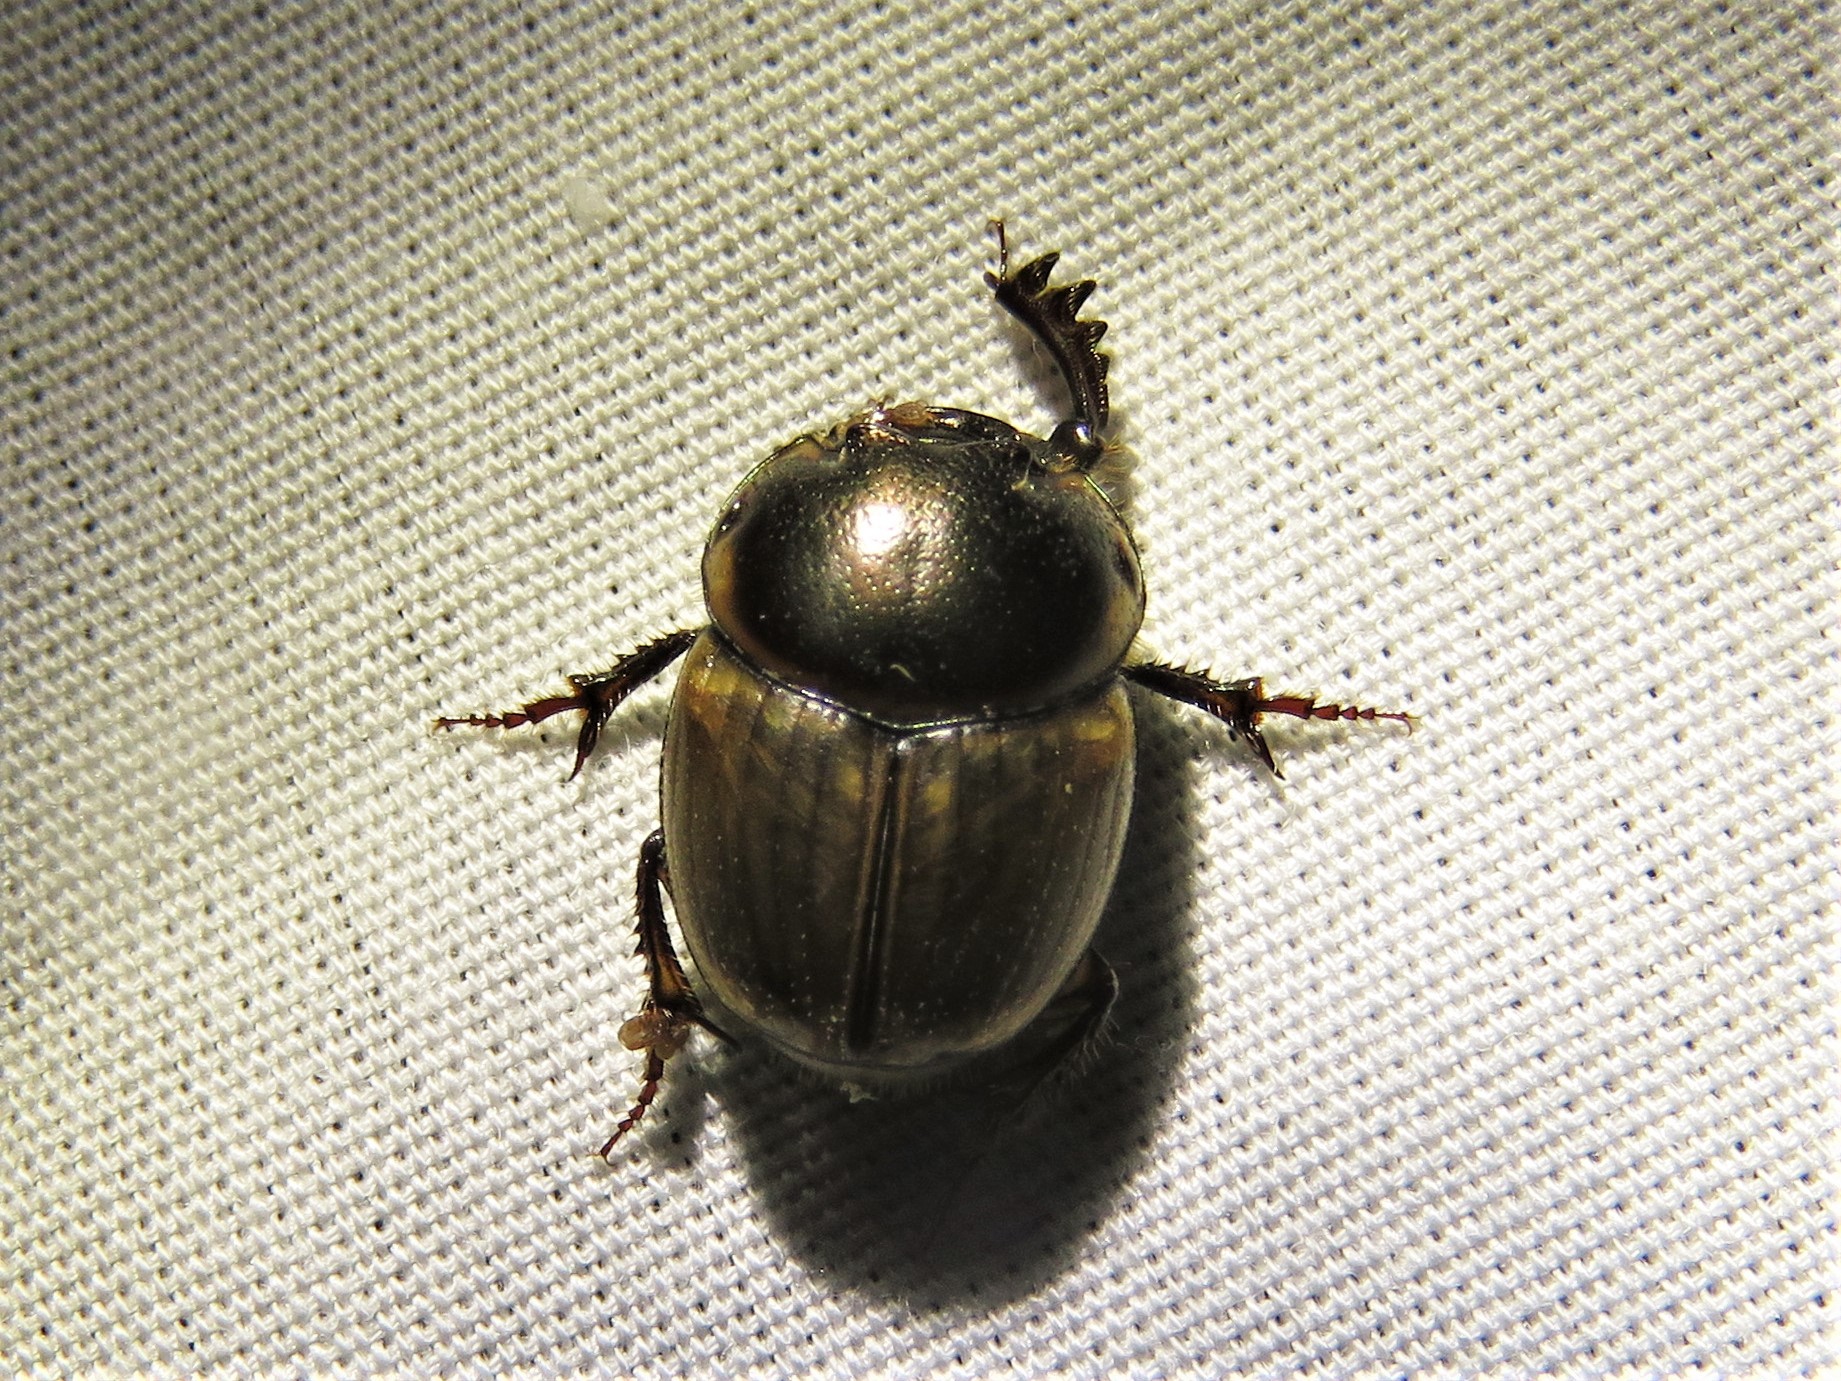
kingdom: Animalia
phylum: Arthropoda
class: Insecta
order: Coleoptera
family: Scarabaeidae
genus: Digitonthophagus
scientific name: Digitonthophagus gazella
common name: Brown dung beetle
